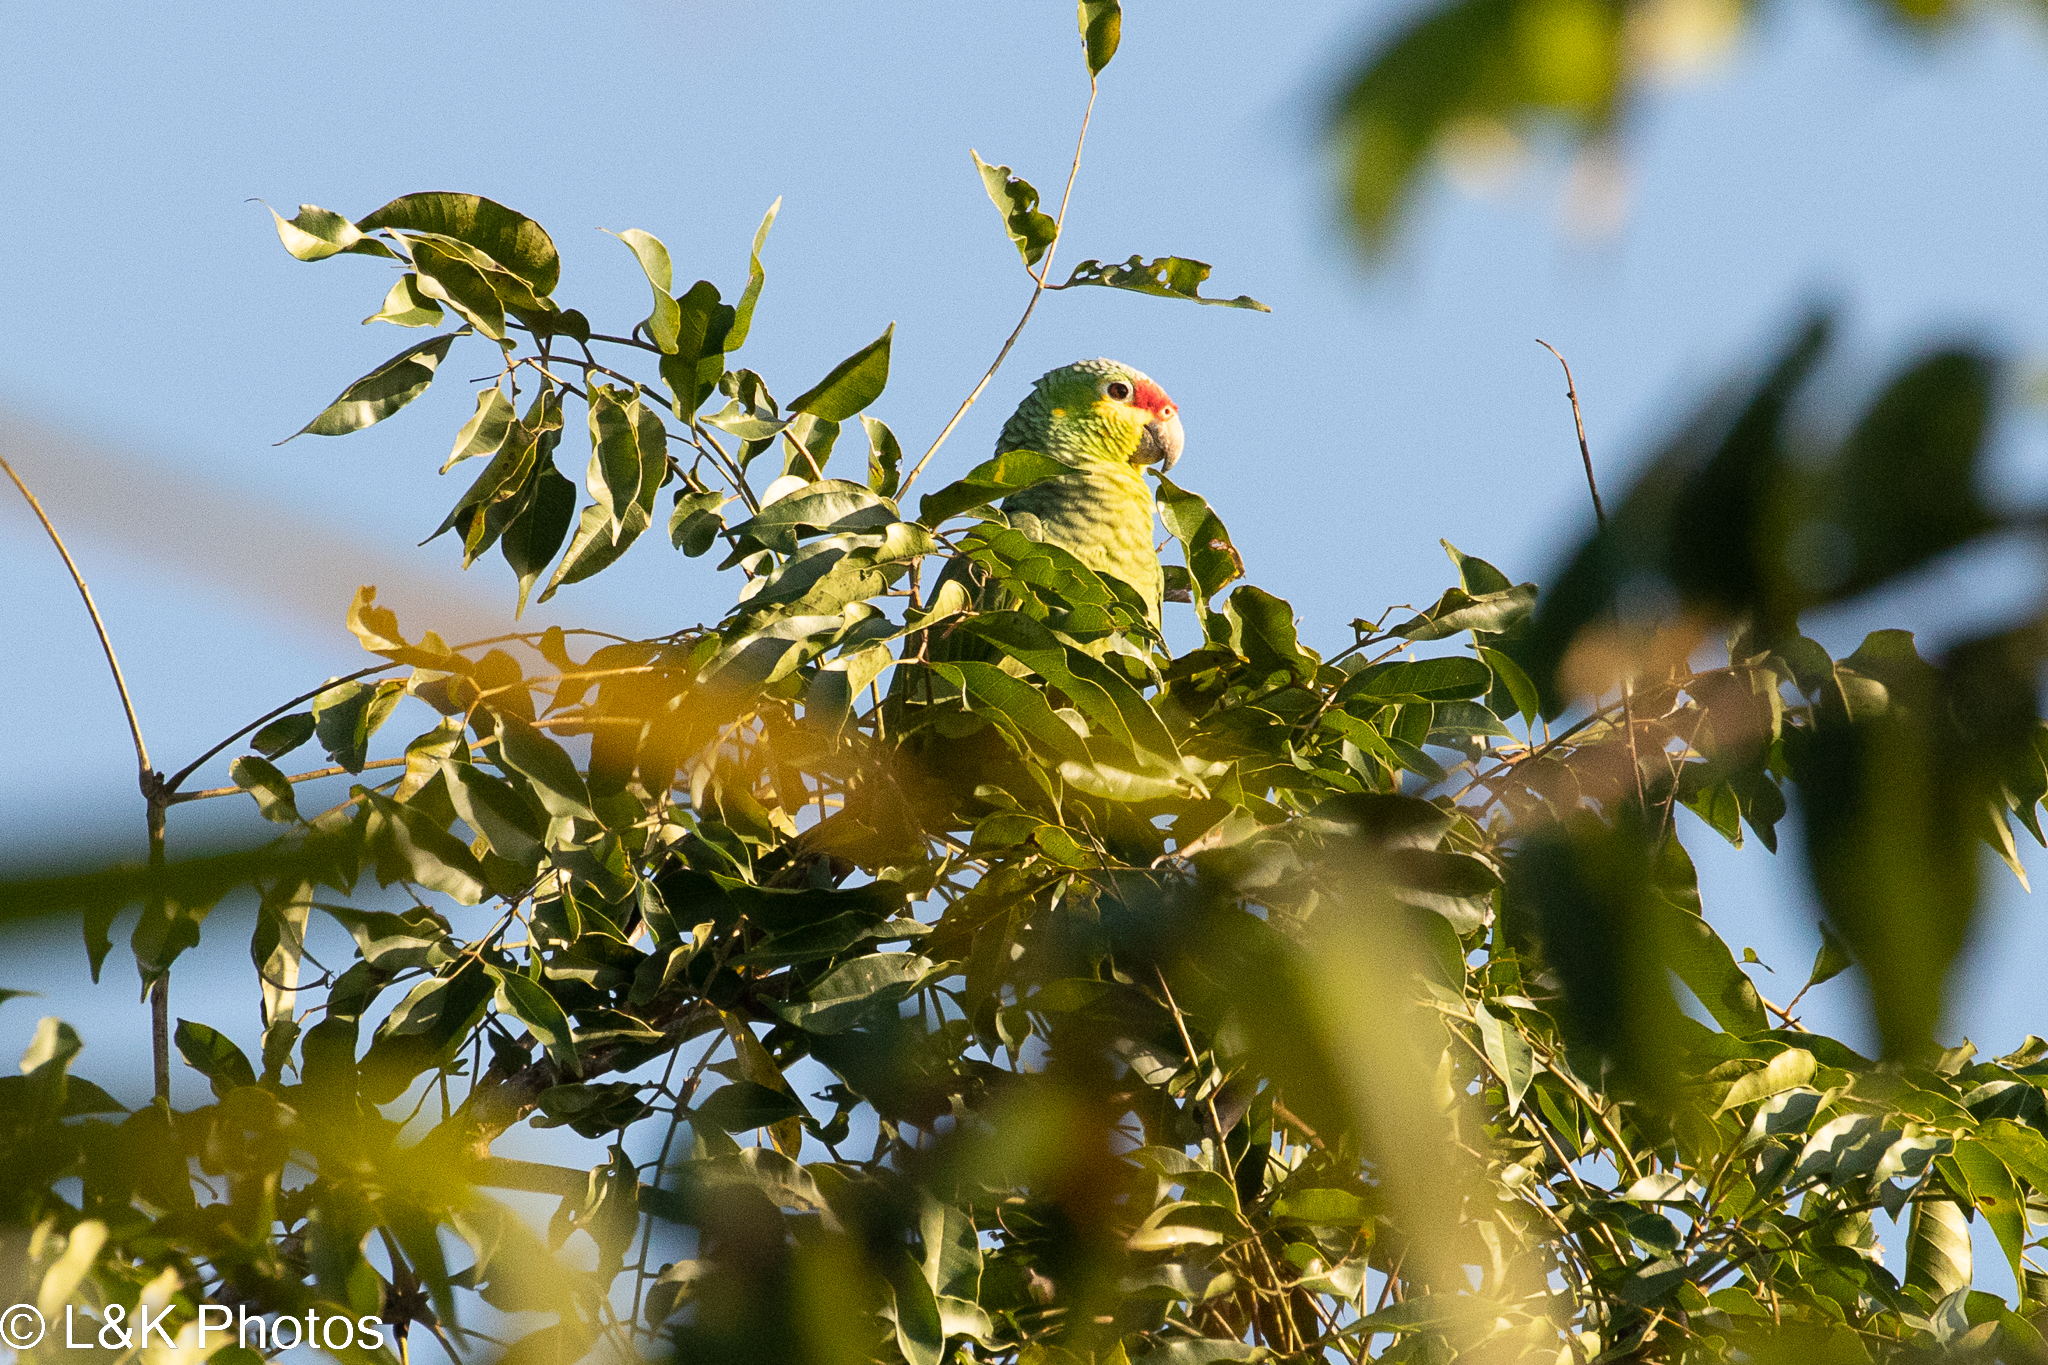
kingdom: Animalia
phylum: Chordata
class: Aves
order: Psittaciformes
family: Psittacidae
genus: Amazona
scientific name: Amazona autumnalis
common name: Red-lored amazon
